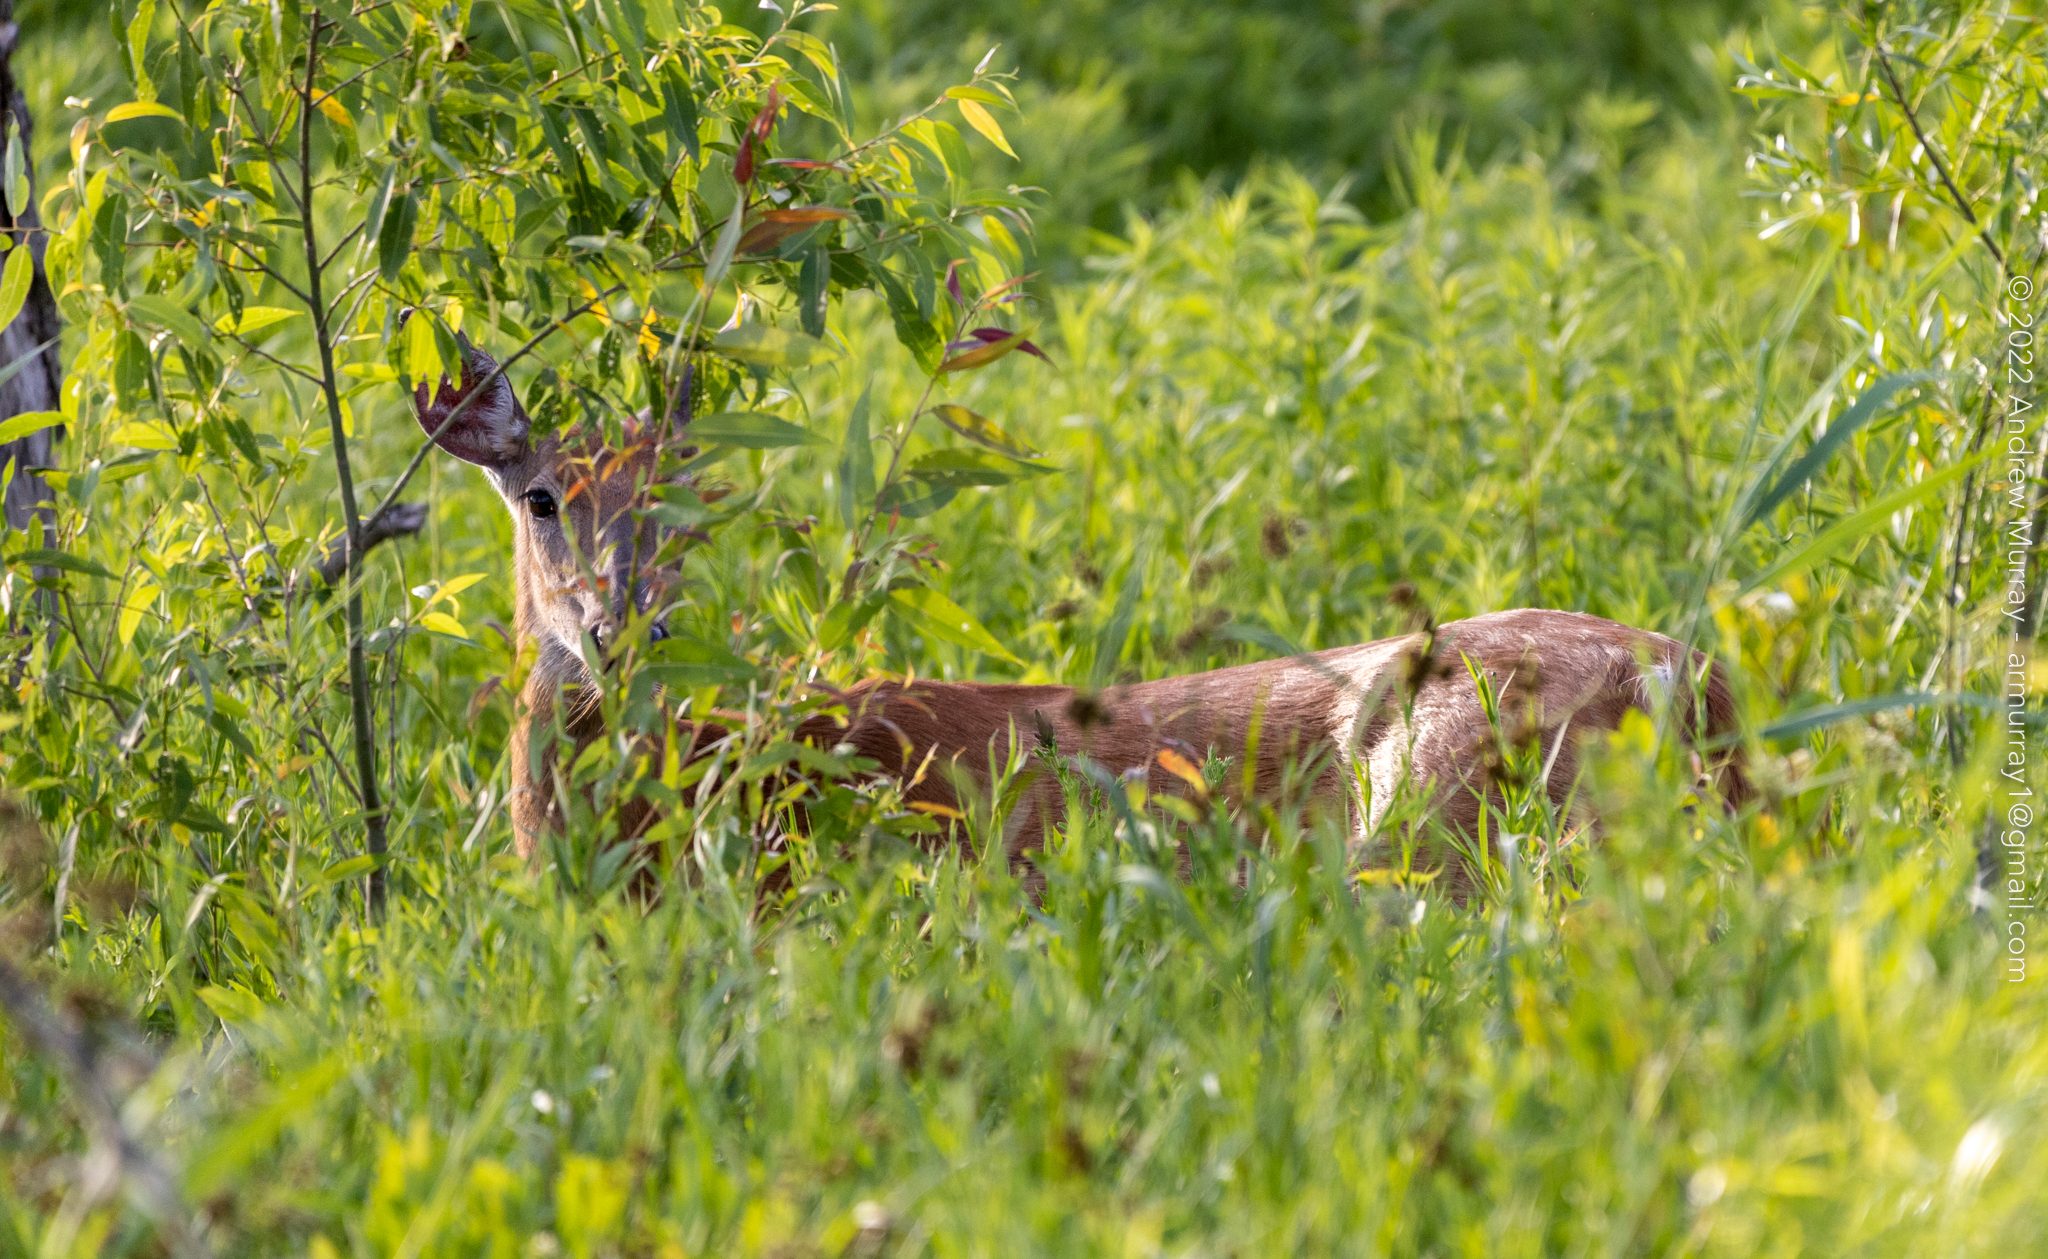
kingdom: Animalia
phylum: Chordata
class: Mammalia
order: Artiodactyla
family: Cervidae
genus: Odocoileus
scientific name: Odocoileus virginianus
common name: White-tailed deer
